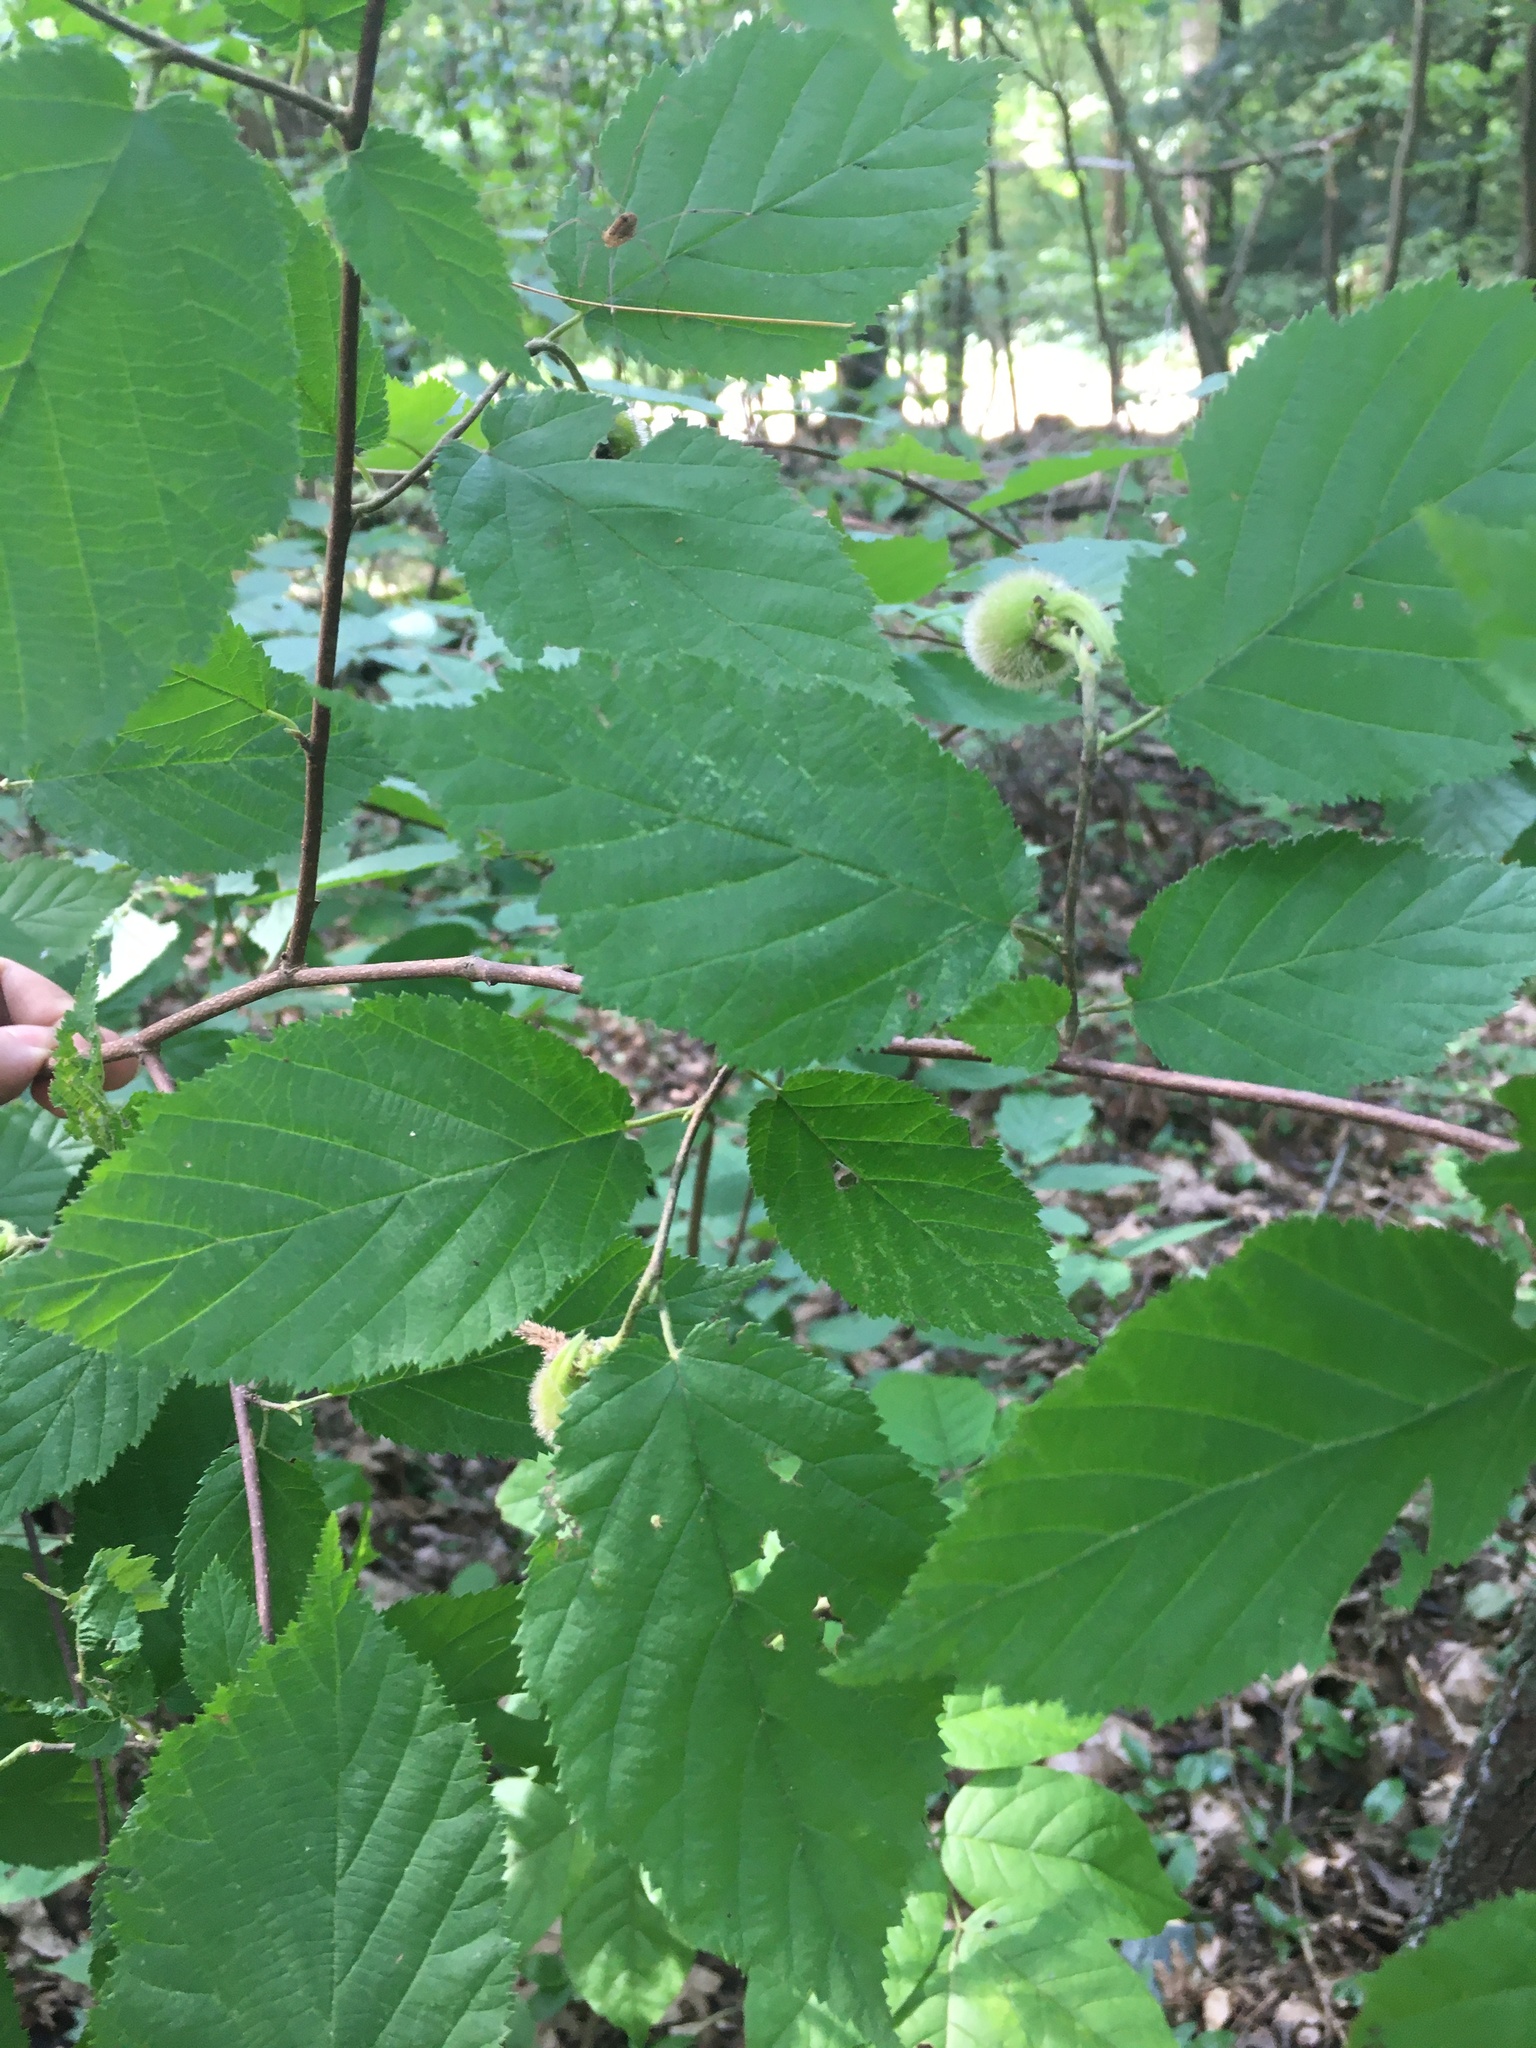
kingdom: Plantae
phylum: Tracheophyta
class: Magnoliopsida
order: Fagales
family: Betulaceae
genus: Corylus
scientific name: Corylus cornuta
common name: Beaked hazel
